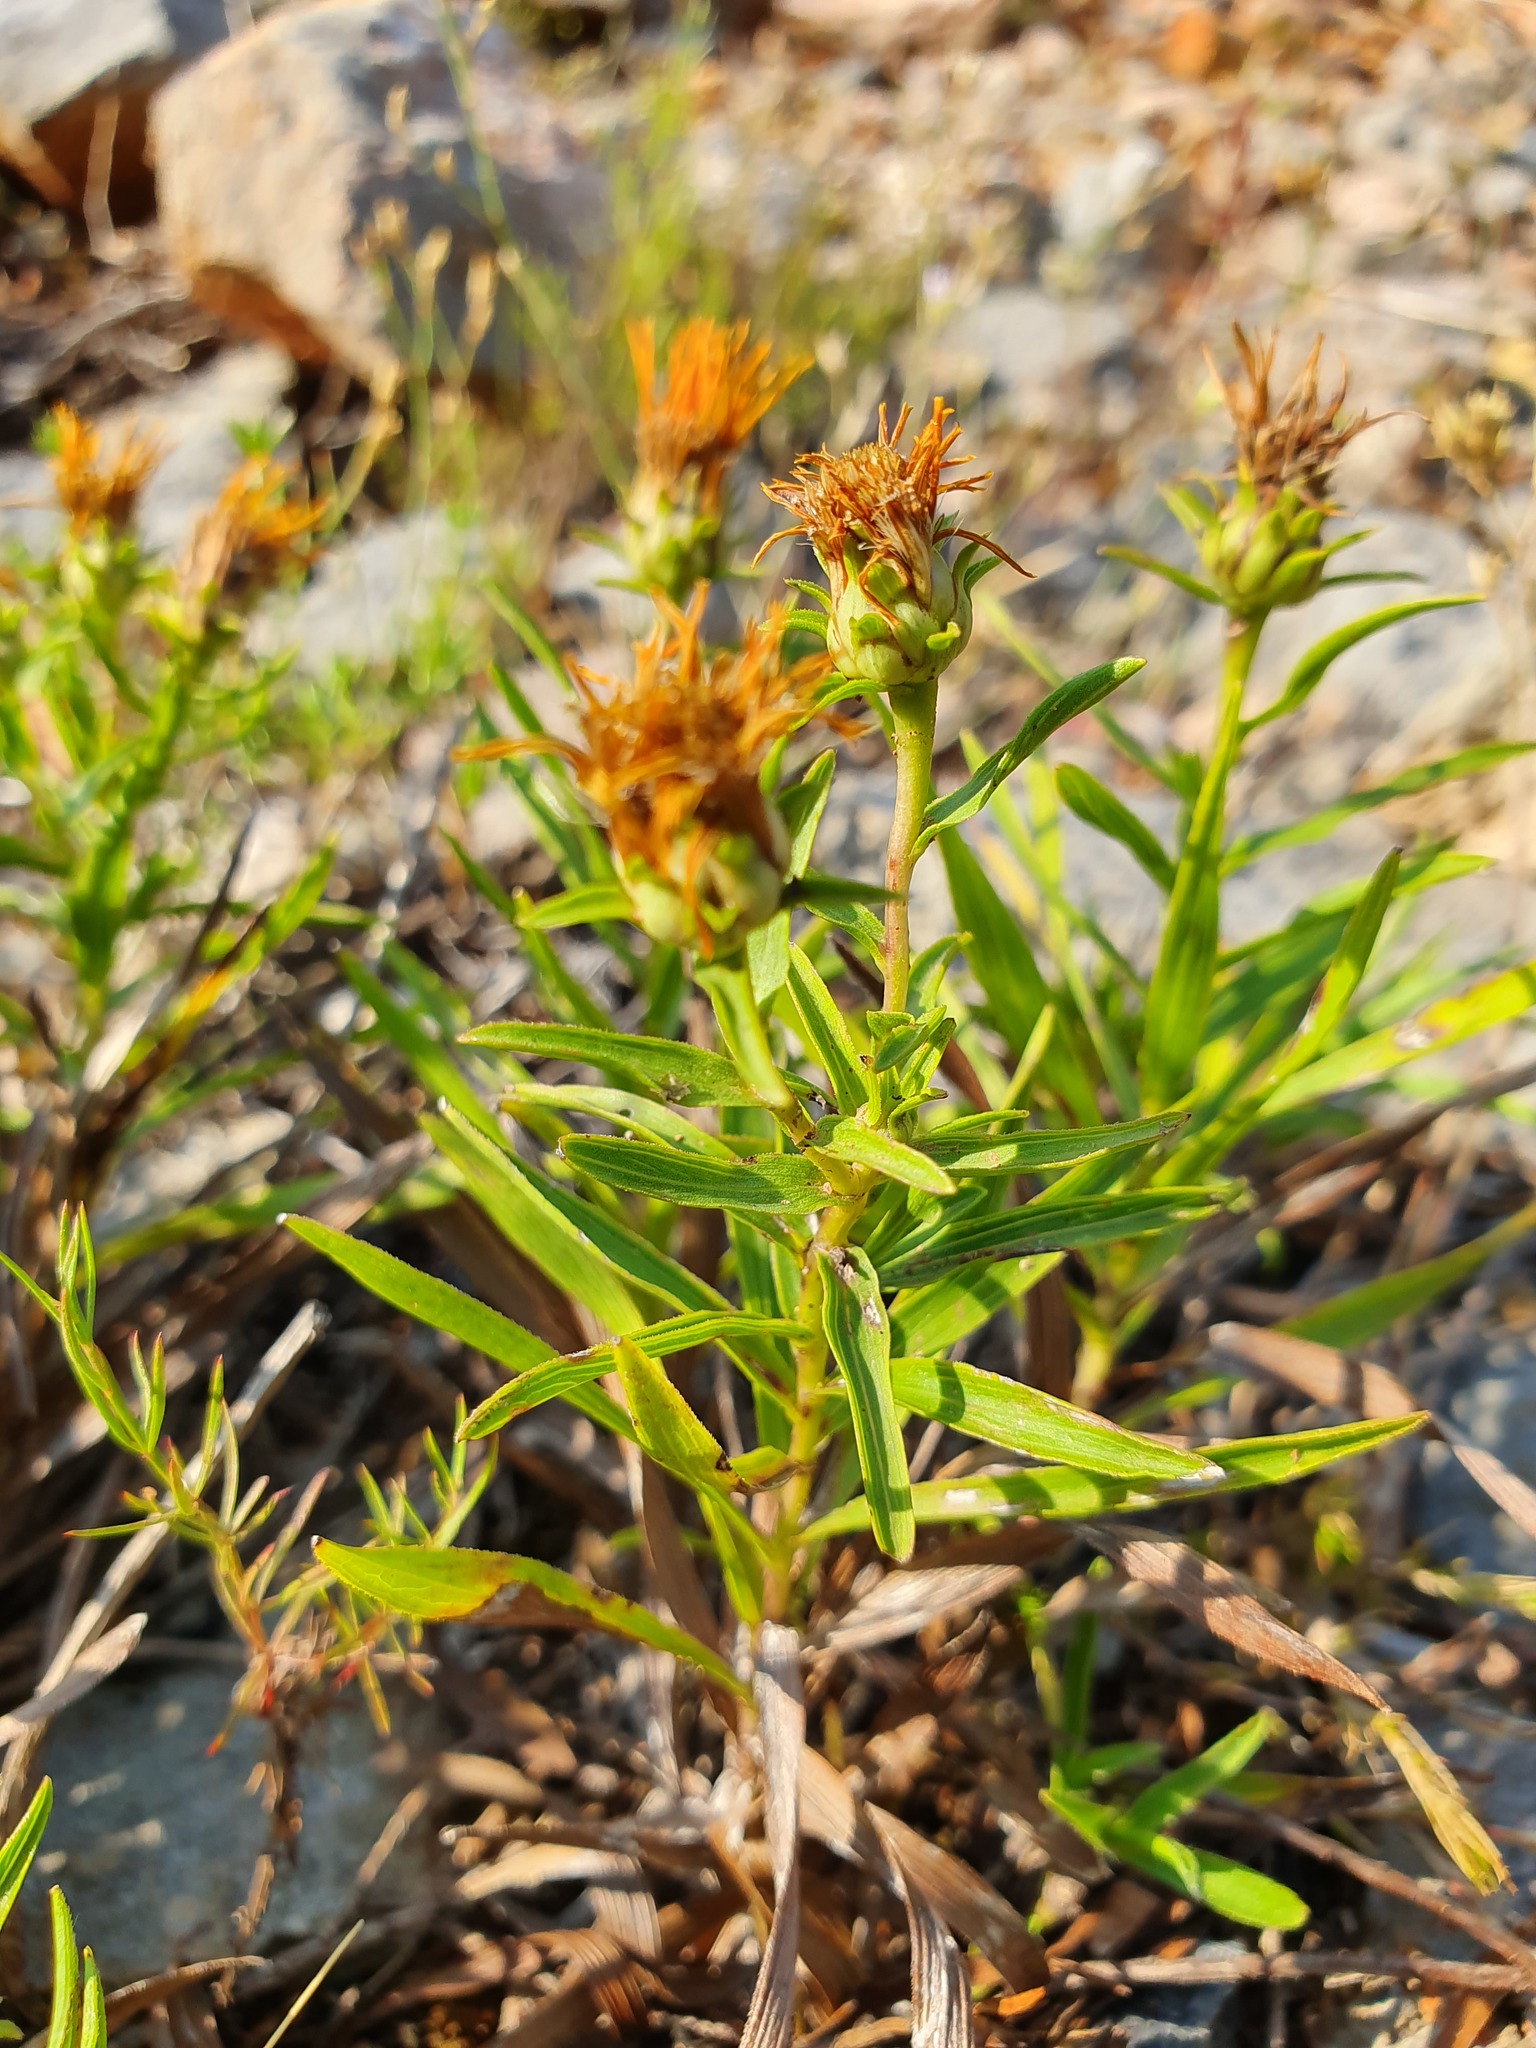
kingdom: Plantae
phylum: Tracheophyta
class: Magnoliopsida
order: Asterales
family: Asteraceae
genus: Pentanema
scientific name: Pentanema ensifolium
